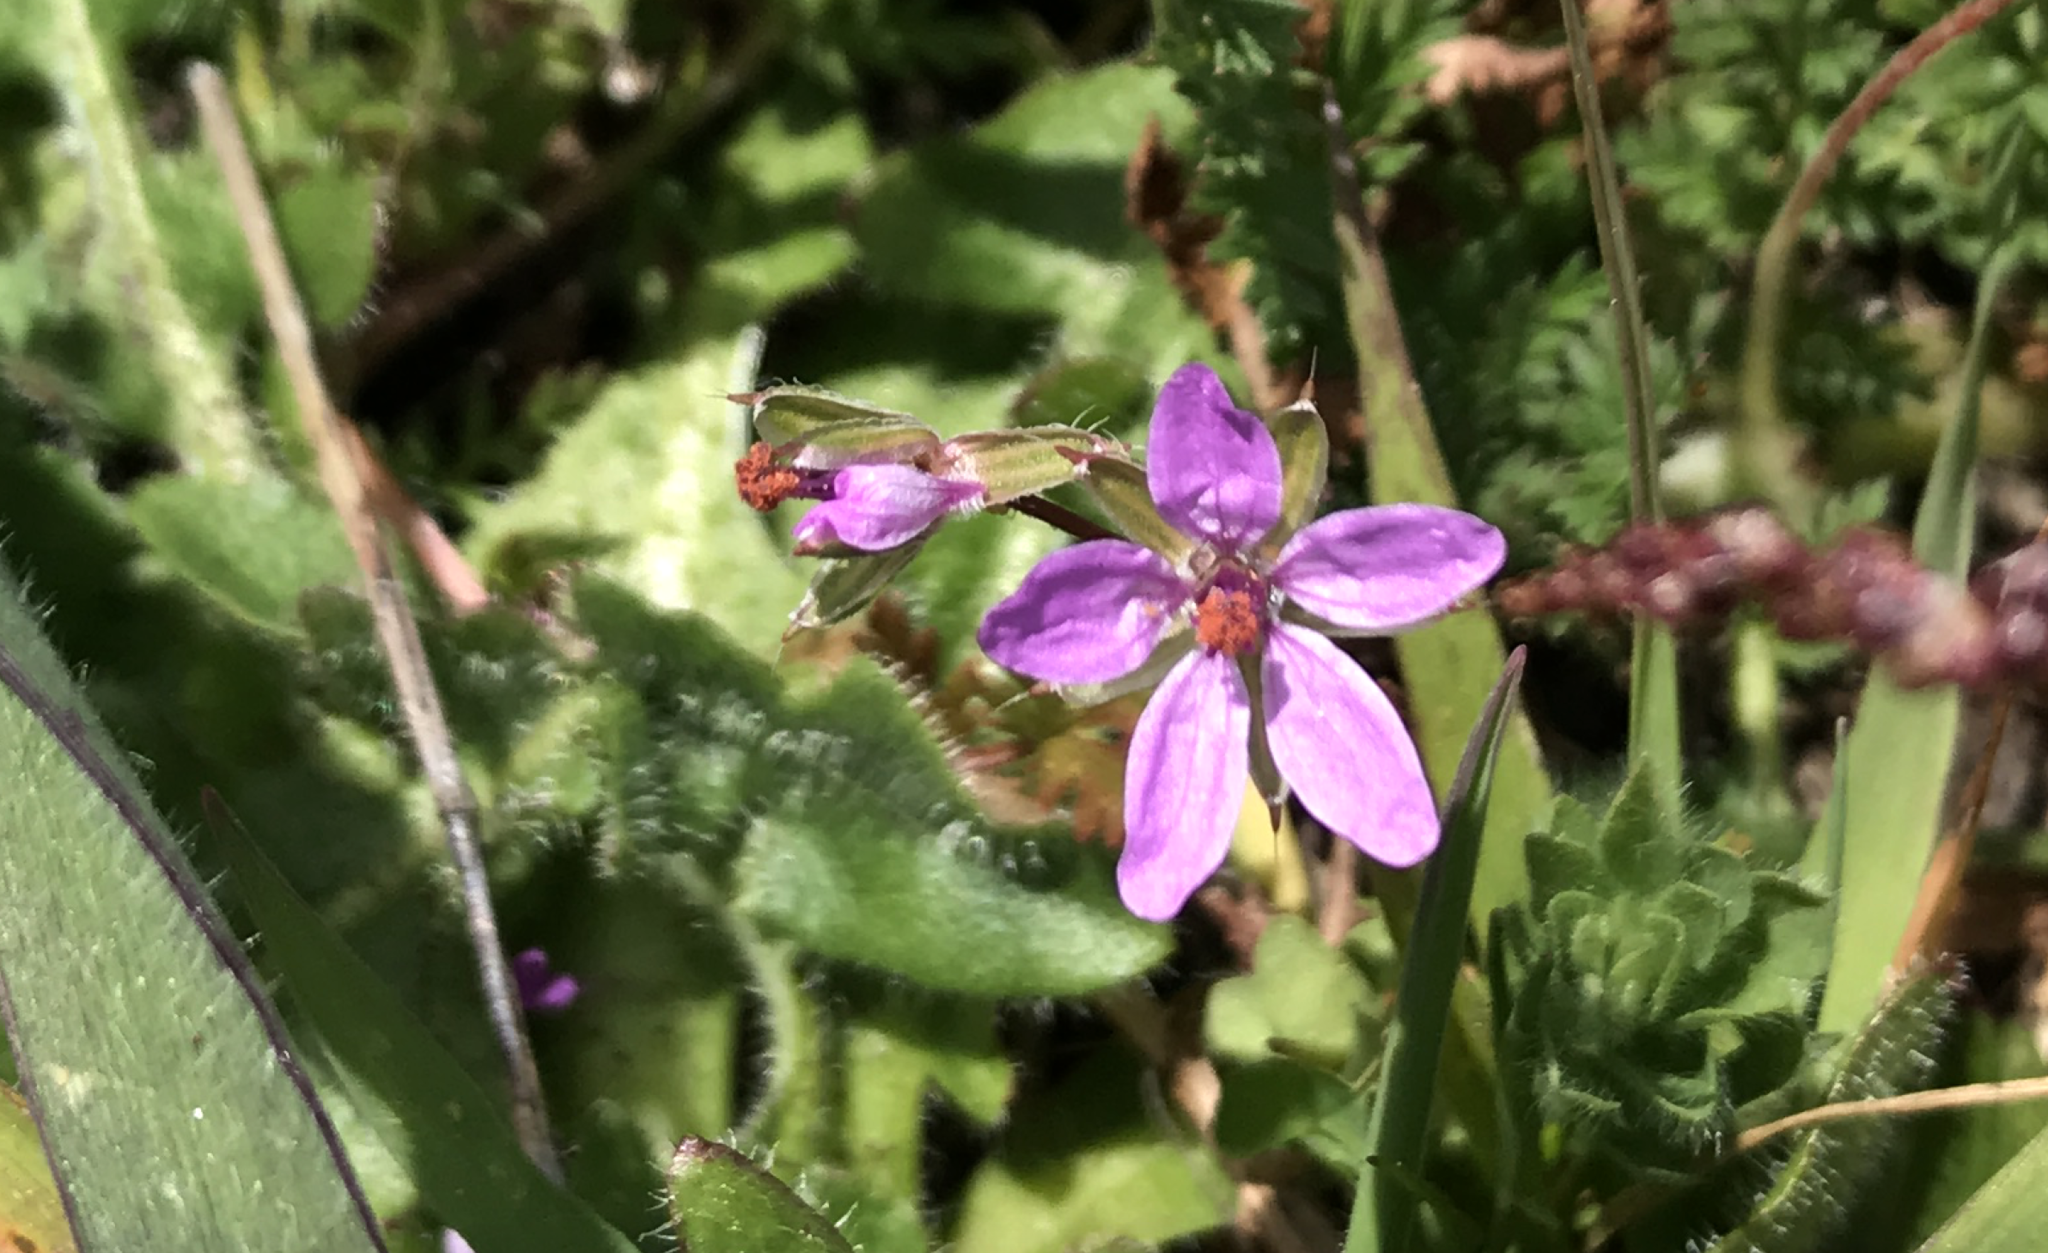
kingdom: Plantae
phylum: Tracheophyta
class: Magnoliopsida
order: Geraniales
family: Geraniaceae
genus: Erodium
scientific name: Erodium cicutarium
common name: Common stork's-bill
